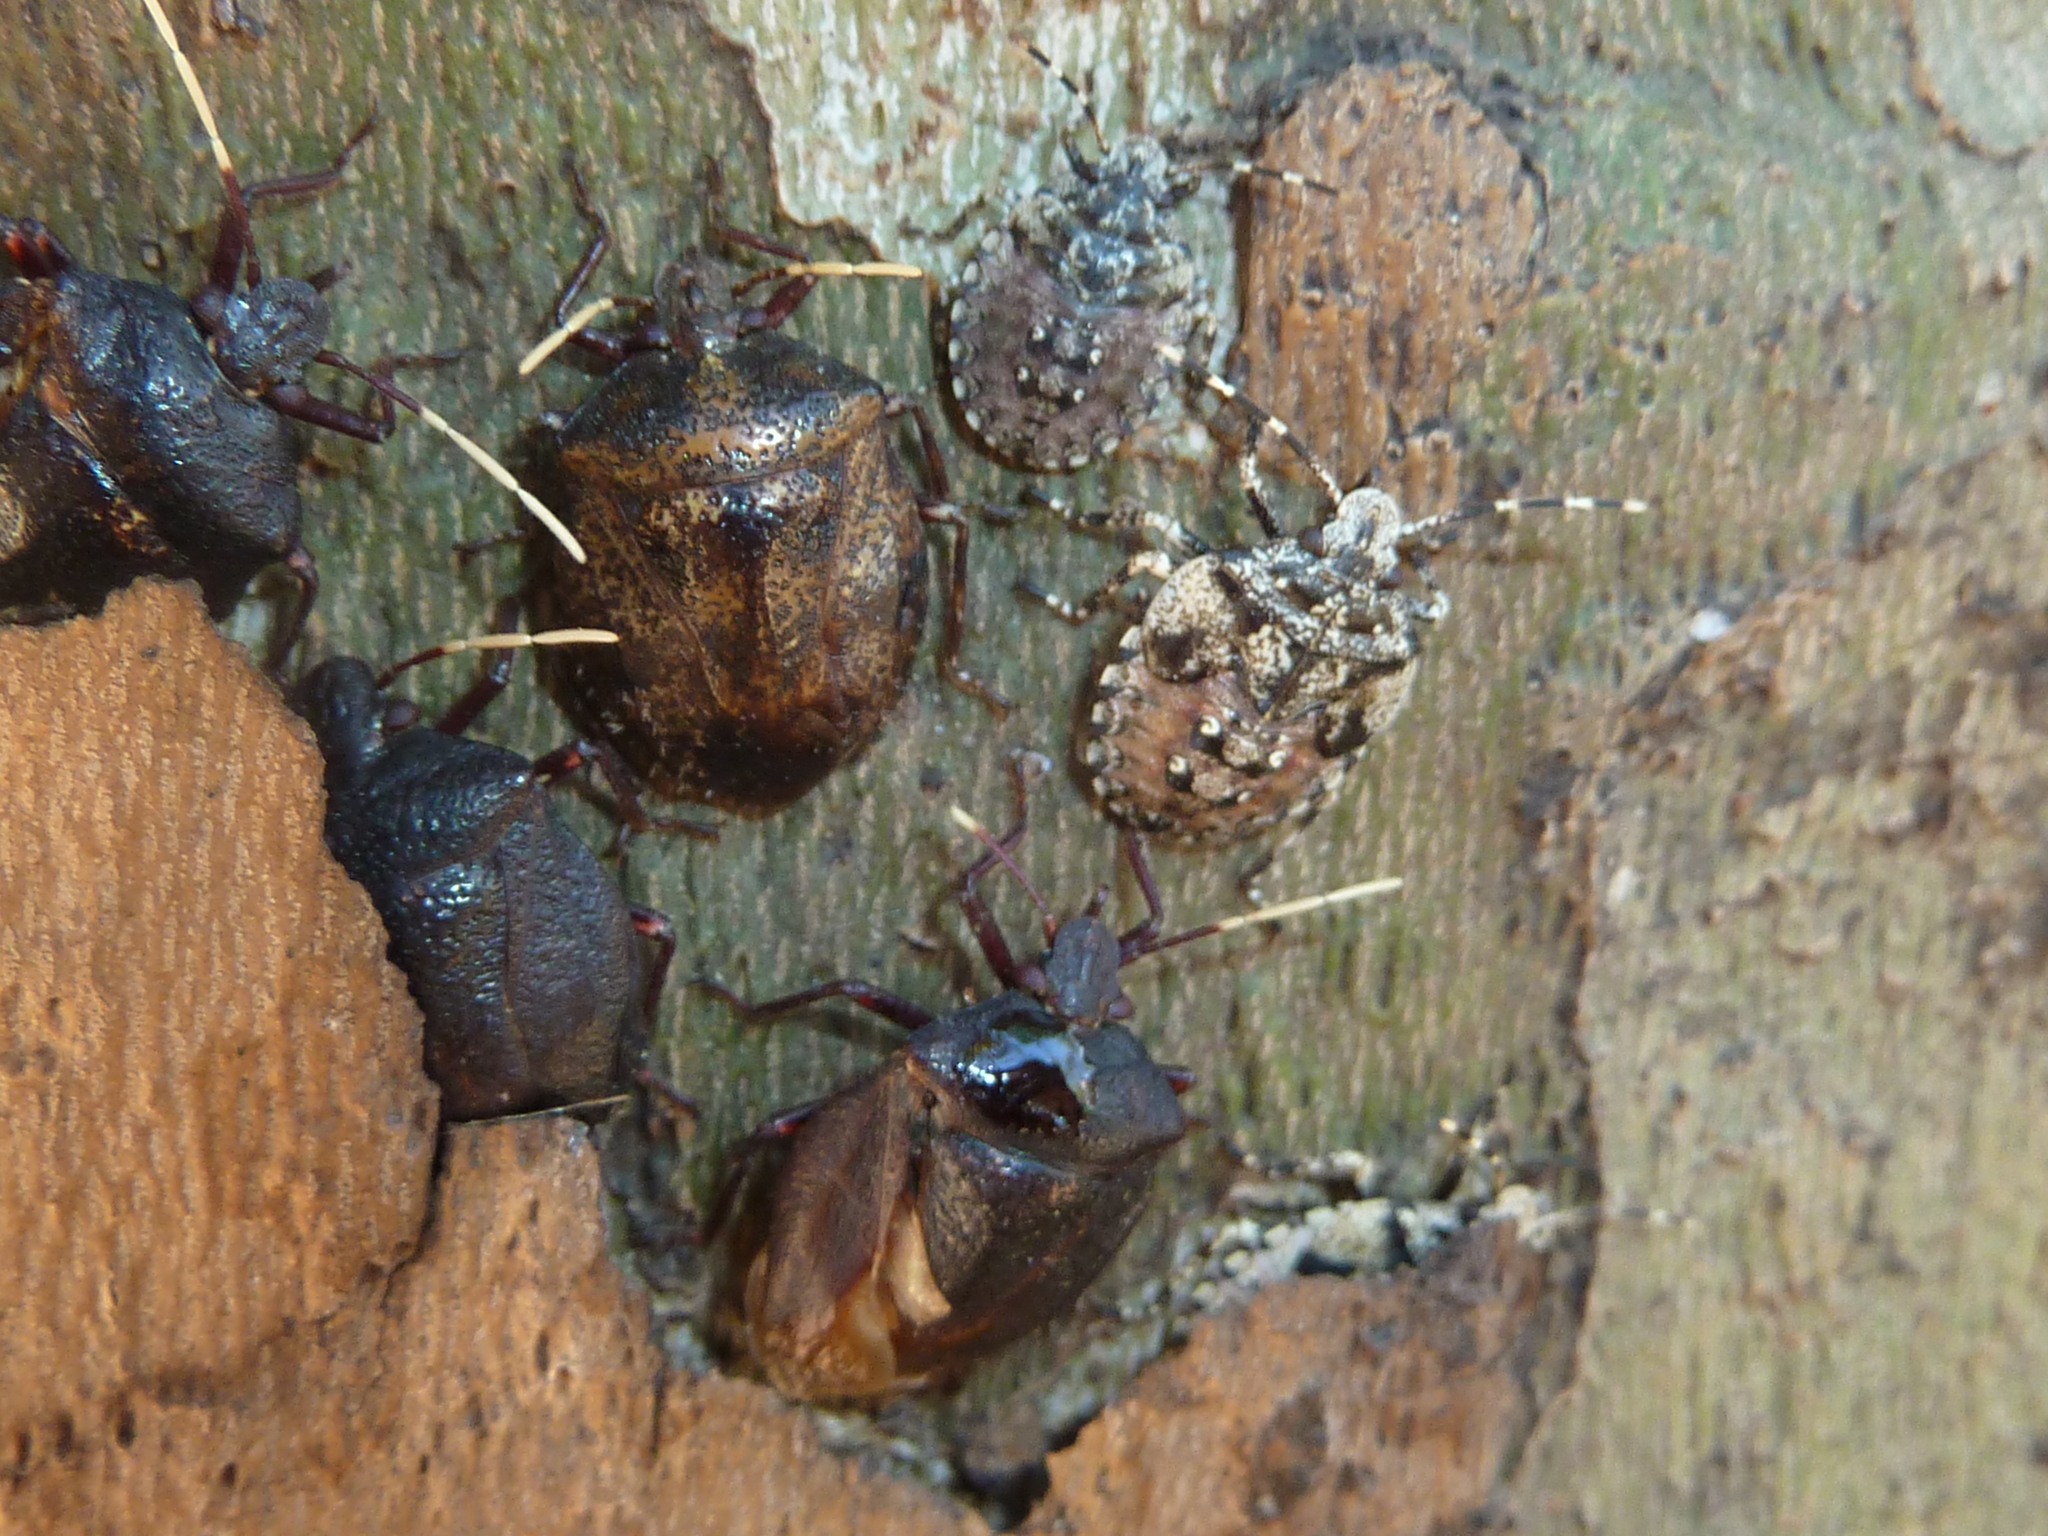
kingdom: Animalia
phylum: Arthropoda
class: Insecta
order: Hemiptera
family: Pentatomidae
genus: Antiteuchus
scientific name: Antiteuchus mixtus
